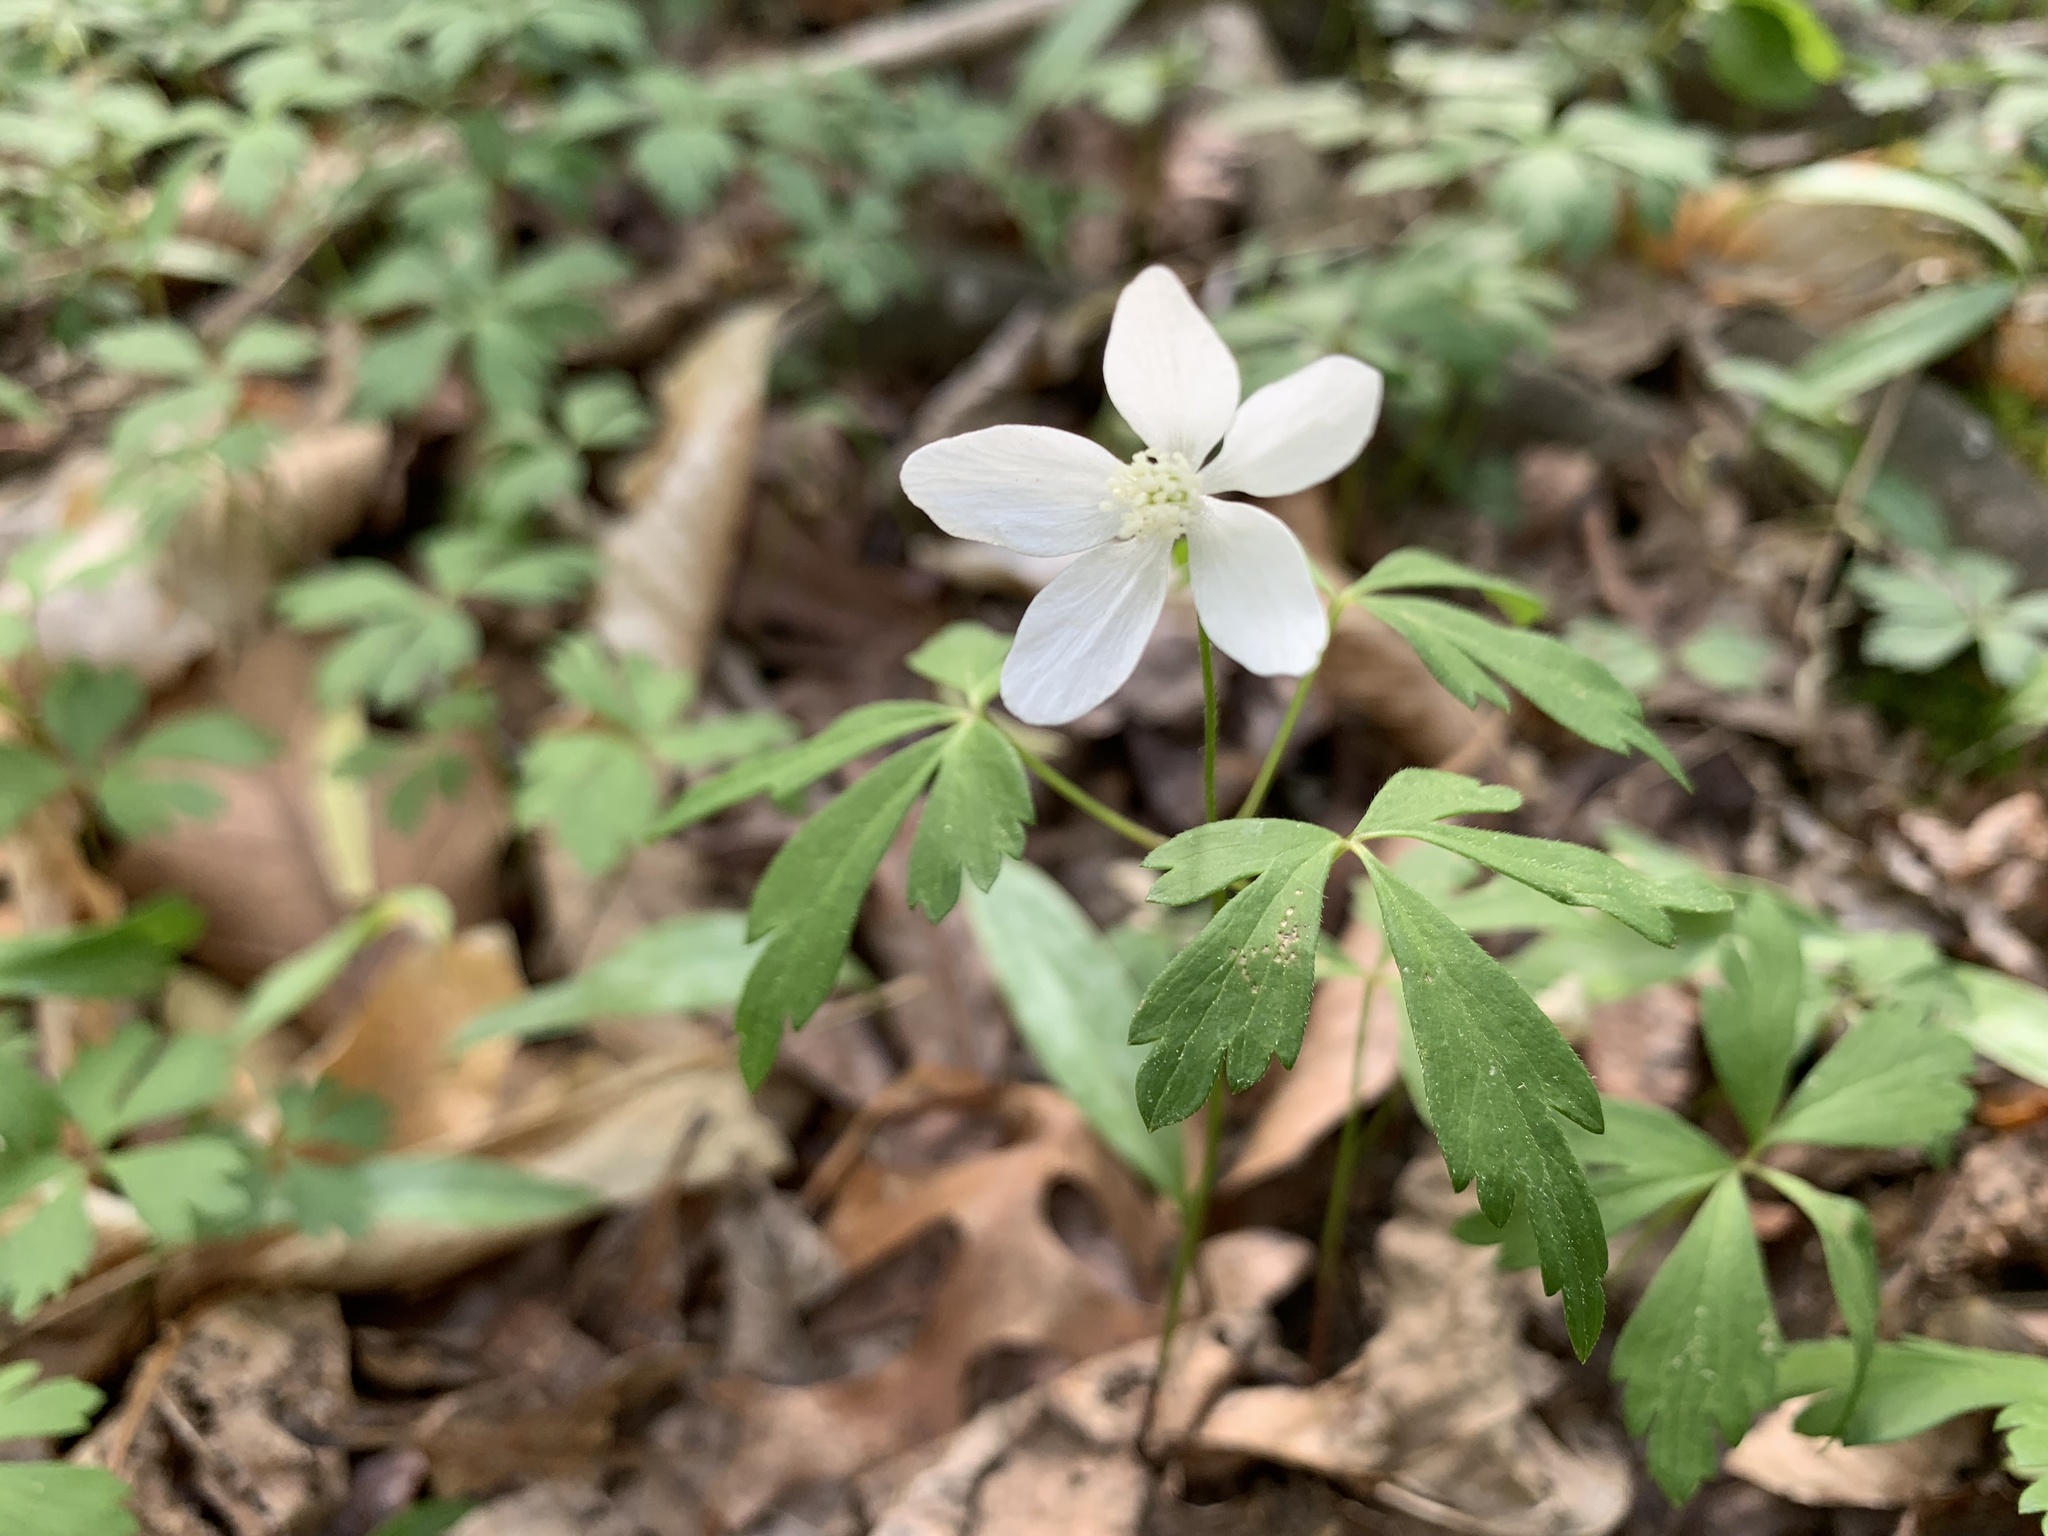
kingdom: Plantae
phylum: Tracheophyta
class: Magnoliopsida
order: Ranunculales
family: Ranunculaceae
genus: Anemone
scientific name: Anemone quinquefolia
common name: Wood anemone
